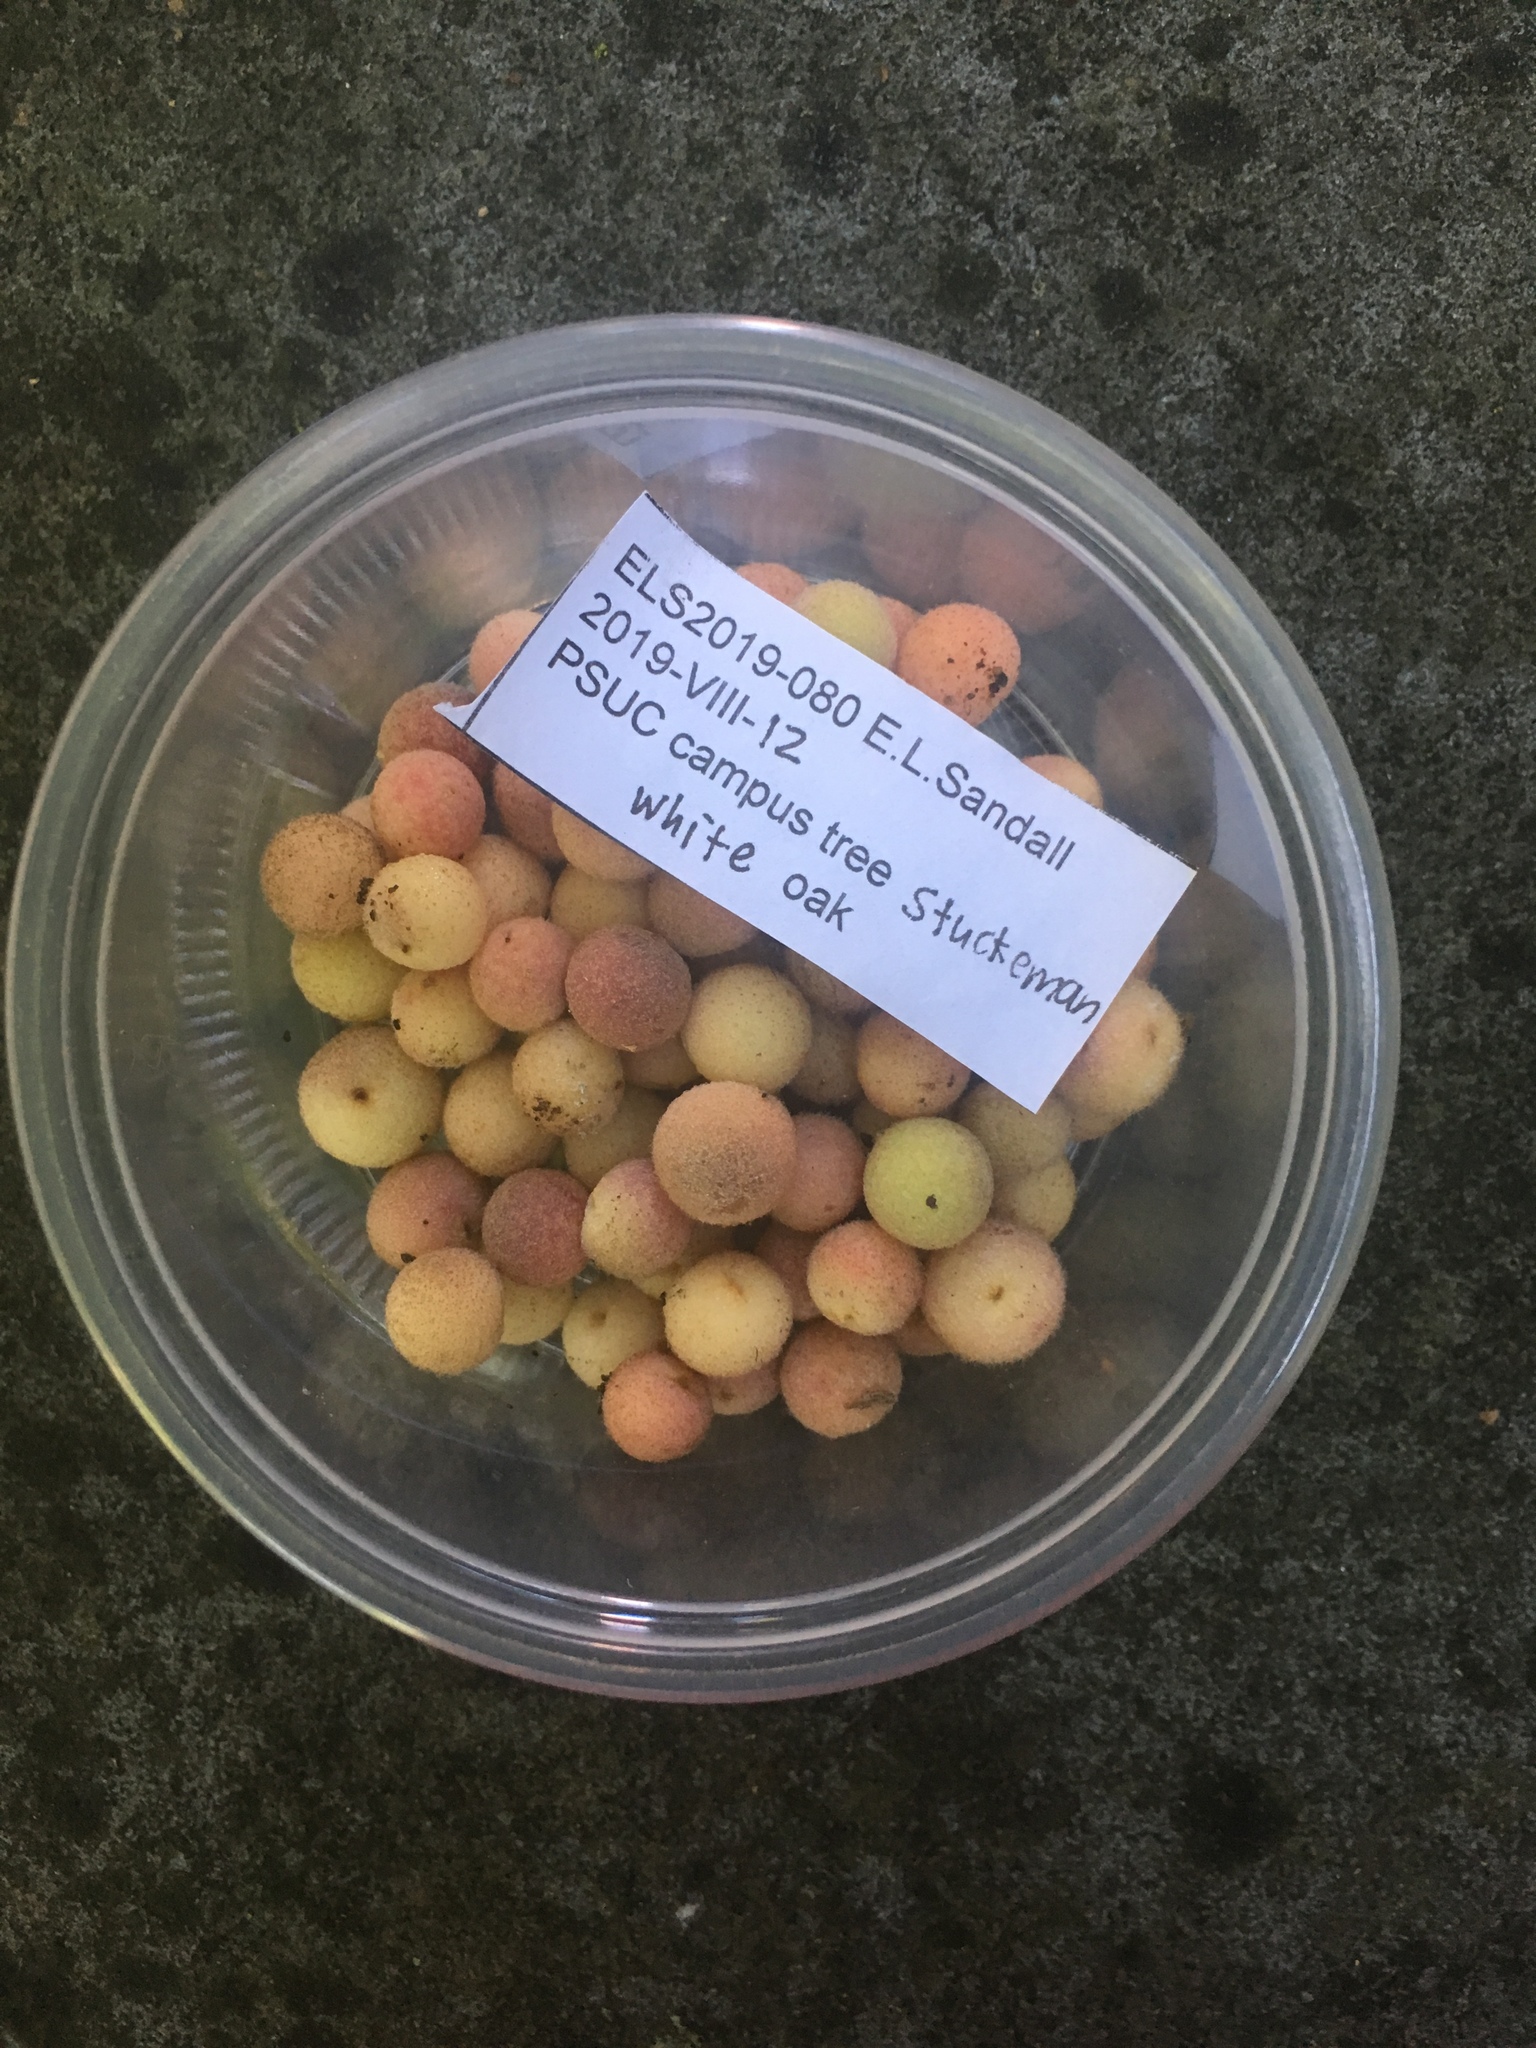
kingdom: Animalia
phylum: Arthropoda
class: Insecta
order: Hymenoptera
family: Cynipidae
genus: Philonix
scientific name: Philonix fulvicollis
